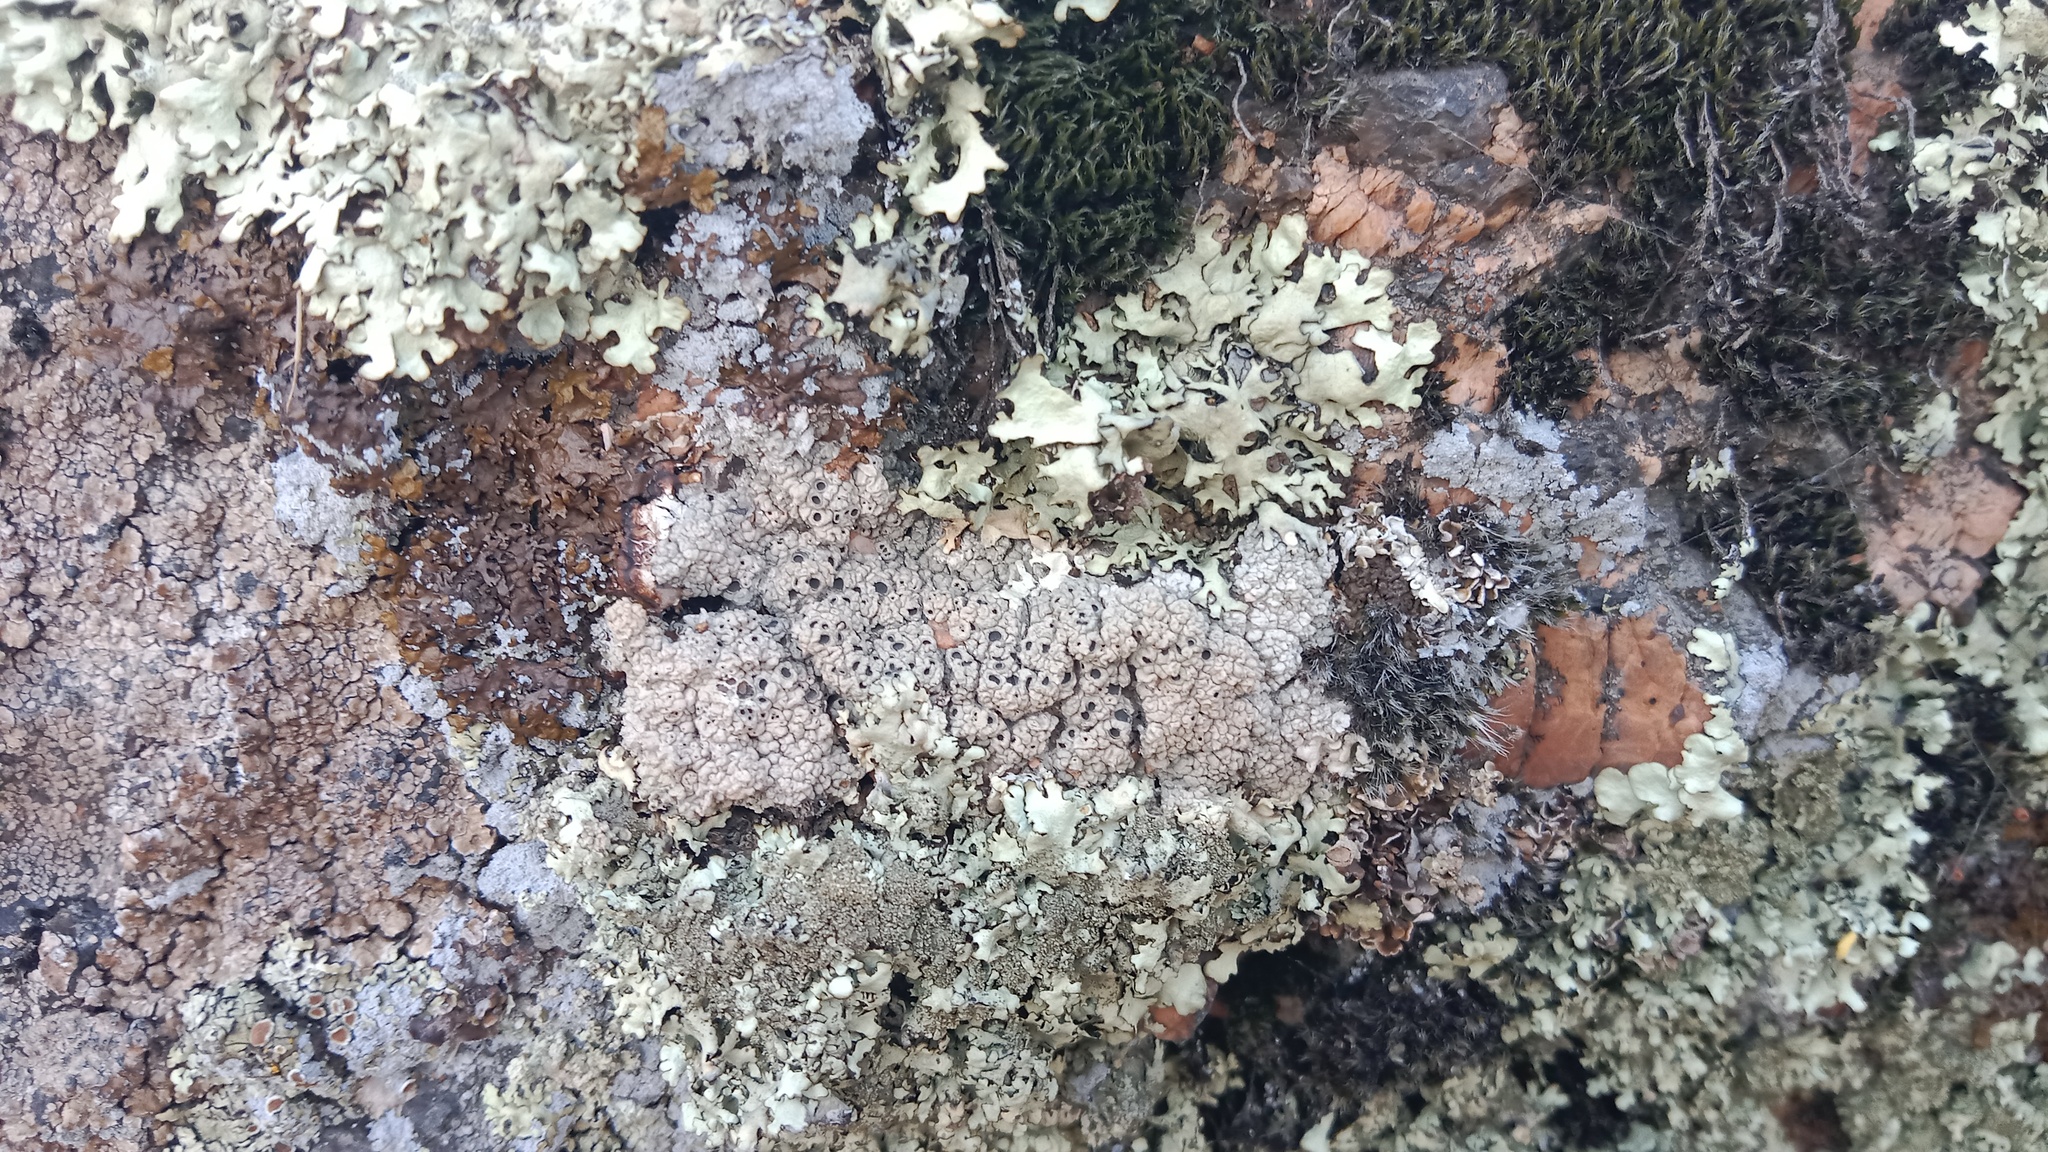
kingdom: Fungi
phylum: Ascomycota
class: Lecanoromycetes
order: Ostropales
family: Graphidaceae
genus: Diploschistes
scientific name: Diploschistes scruposus
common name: Crater lichen
